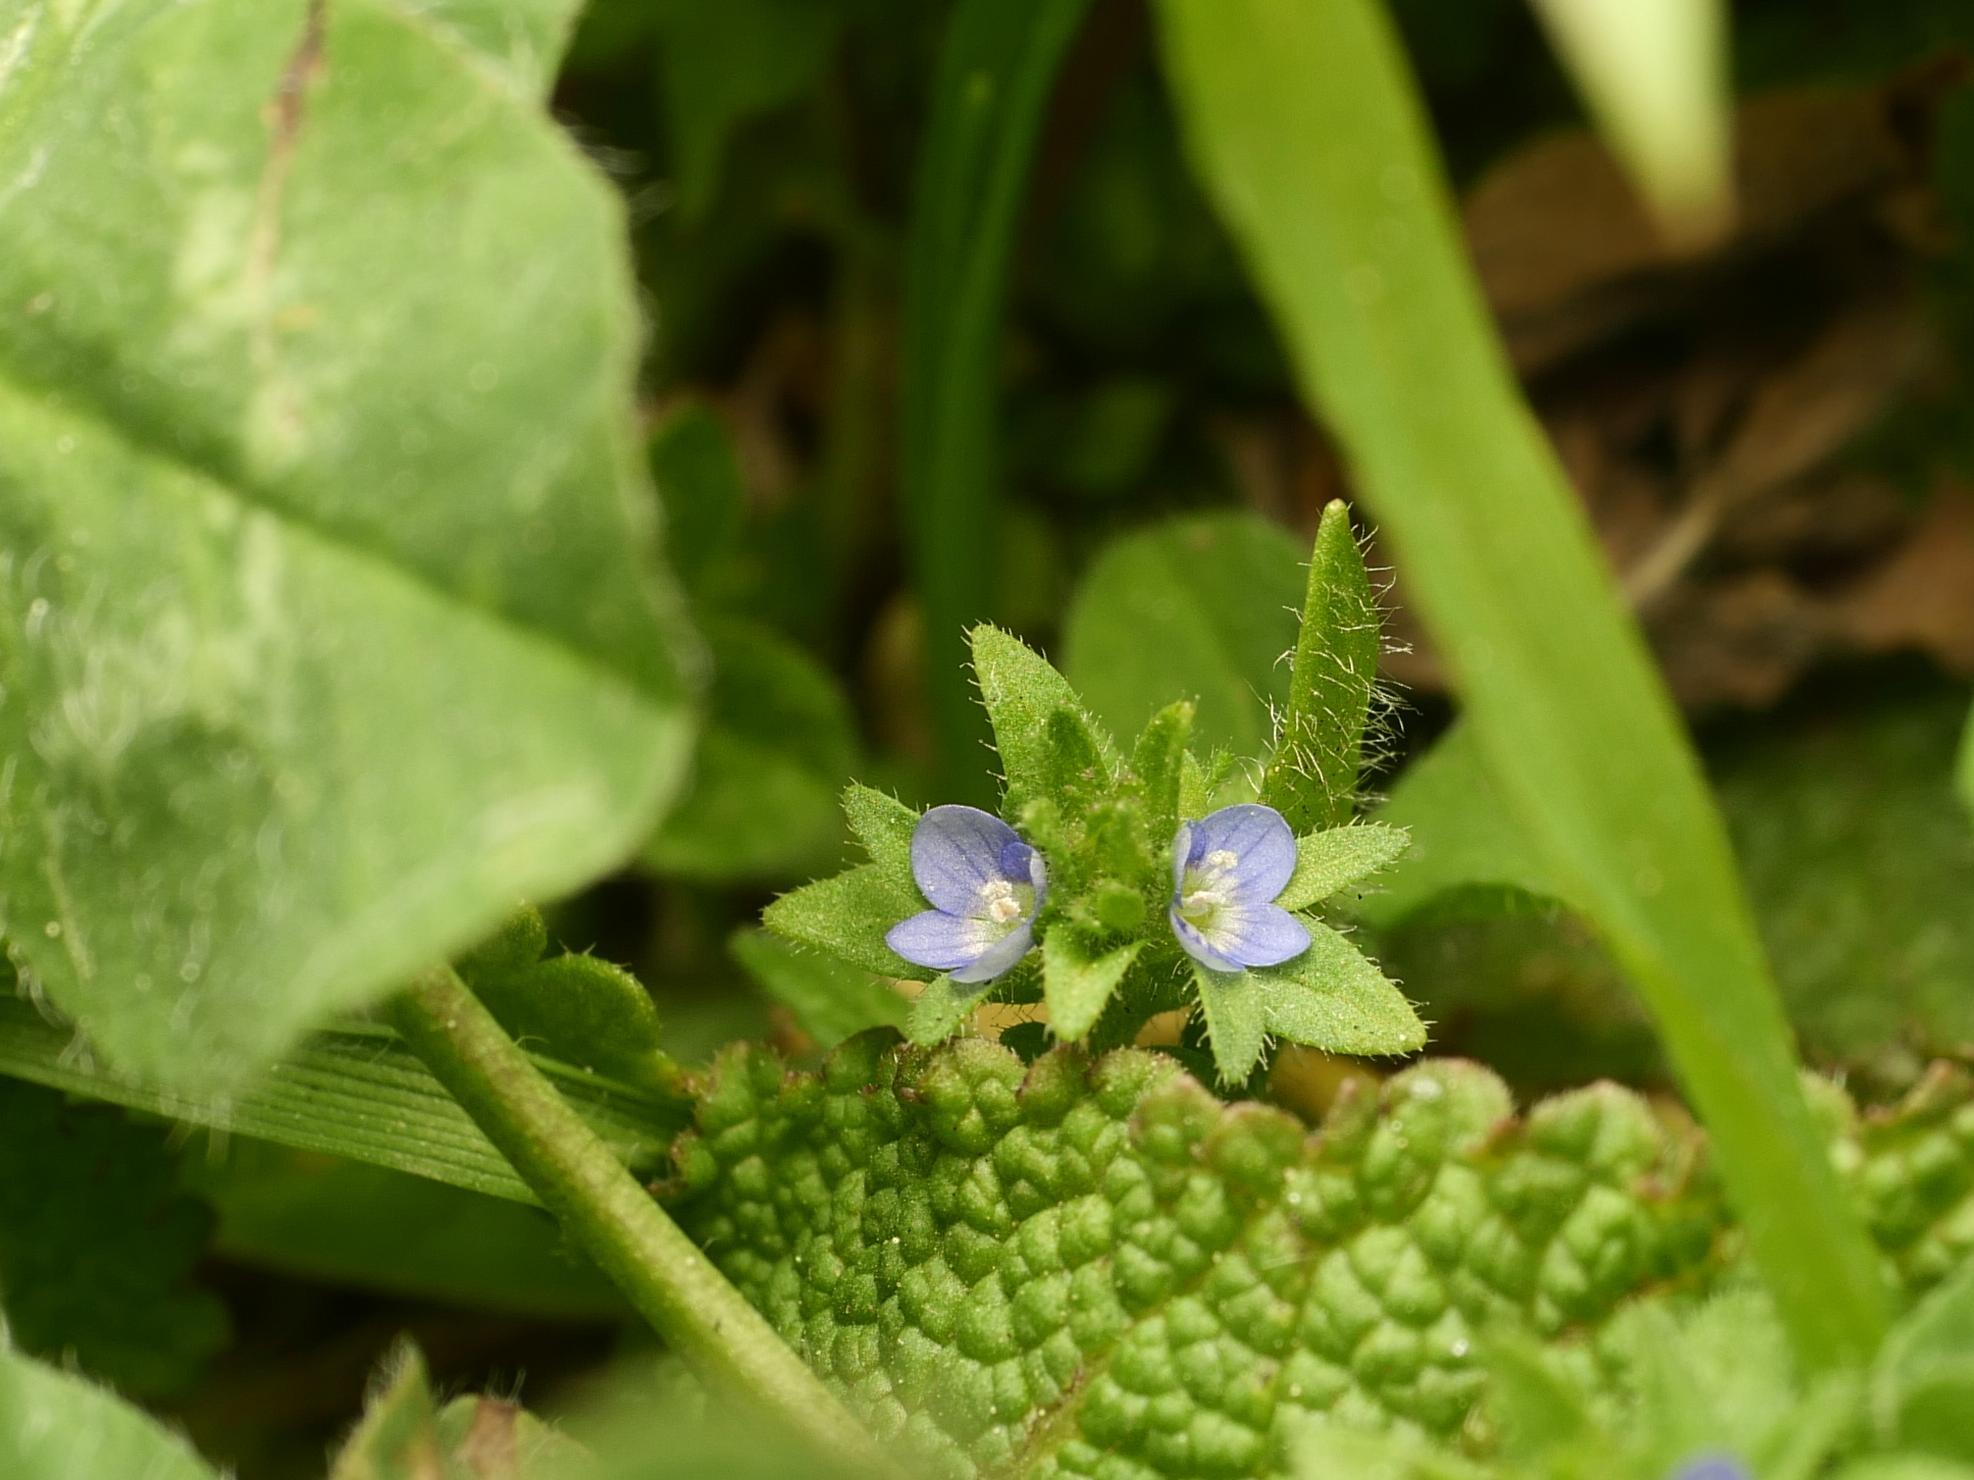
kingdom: Plantae
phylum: Tracheophyta
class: Magnoliopsida
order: Lamiales
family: Plantaginaceae
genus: Veronica
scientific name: Veronica arvensis
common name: Corn speedwell
